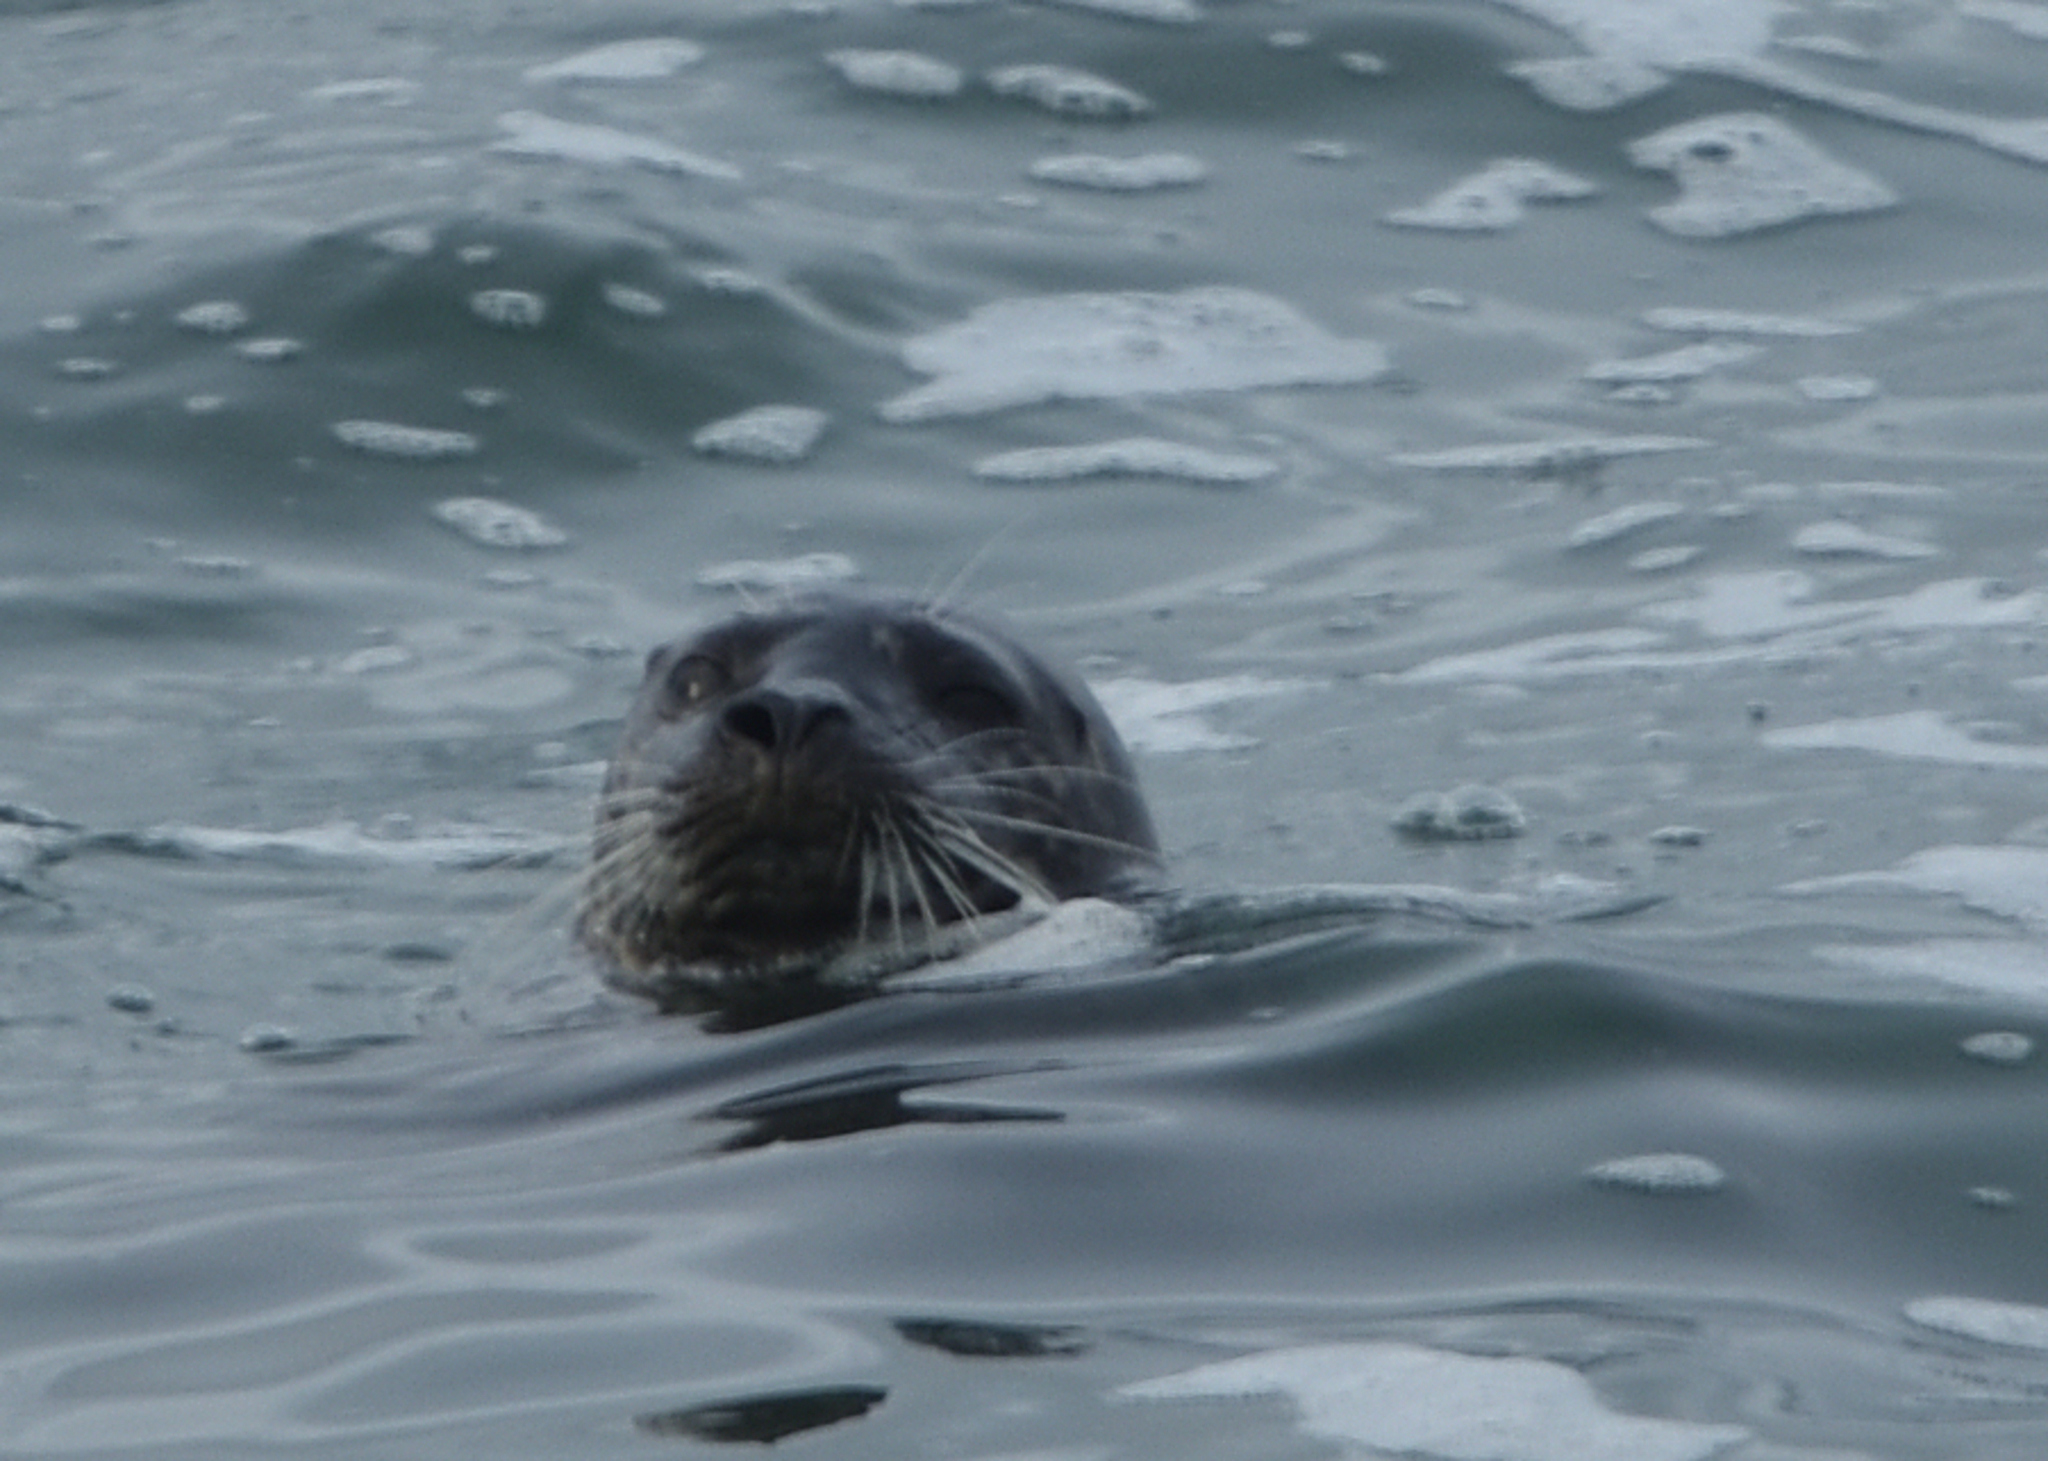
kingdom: Animalia
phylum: Chordata
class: Mammalia
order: Carnivora
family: Phocidae
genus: Phoca
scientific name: Phoca vitulina
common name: Harbor seal
